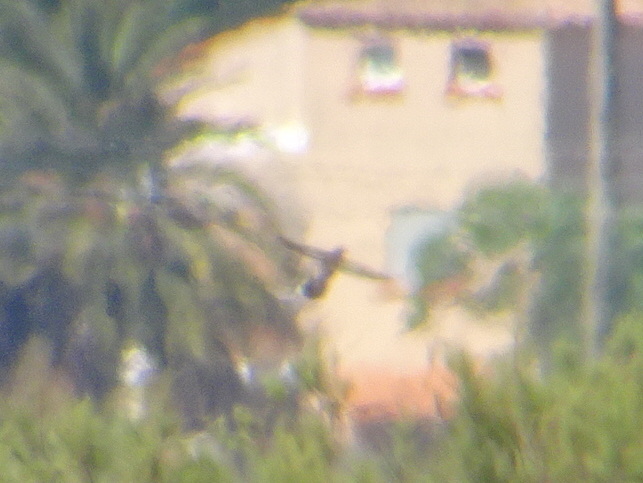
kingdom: Animalia
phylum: Chordata
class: Aves
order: Cuculiformes
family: Cuculidae
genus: Clamator
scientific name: Clamator glandarius
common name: Great spotted cuckoo
